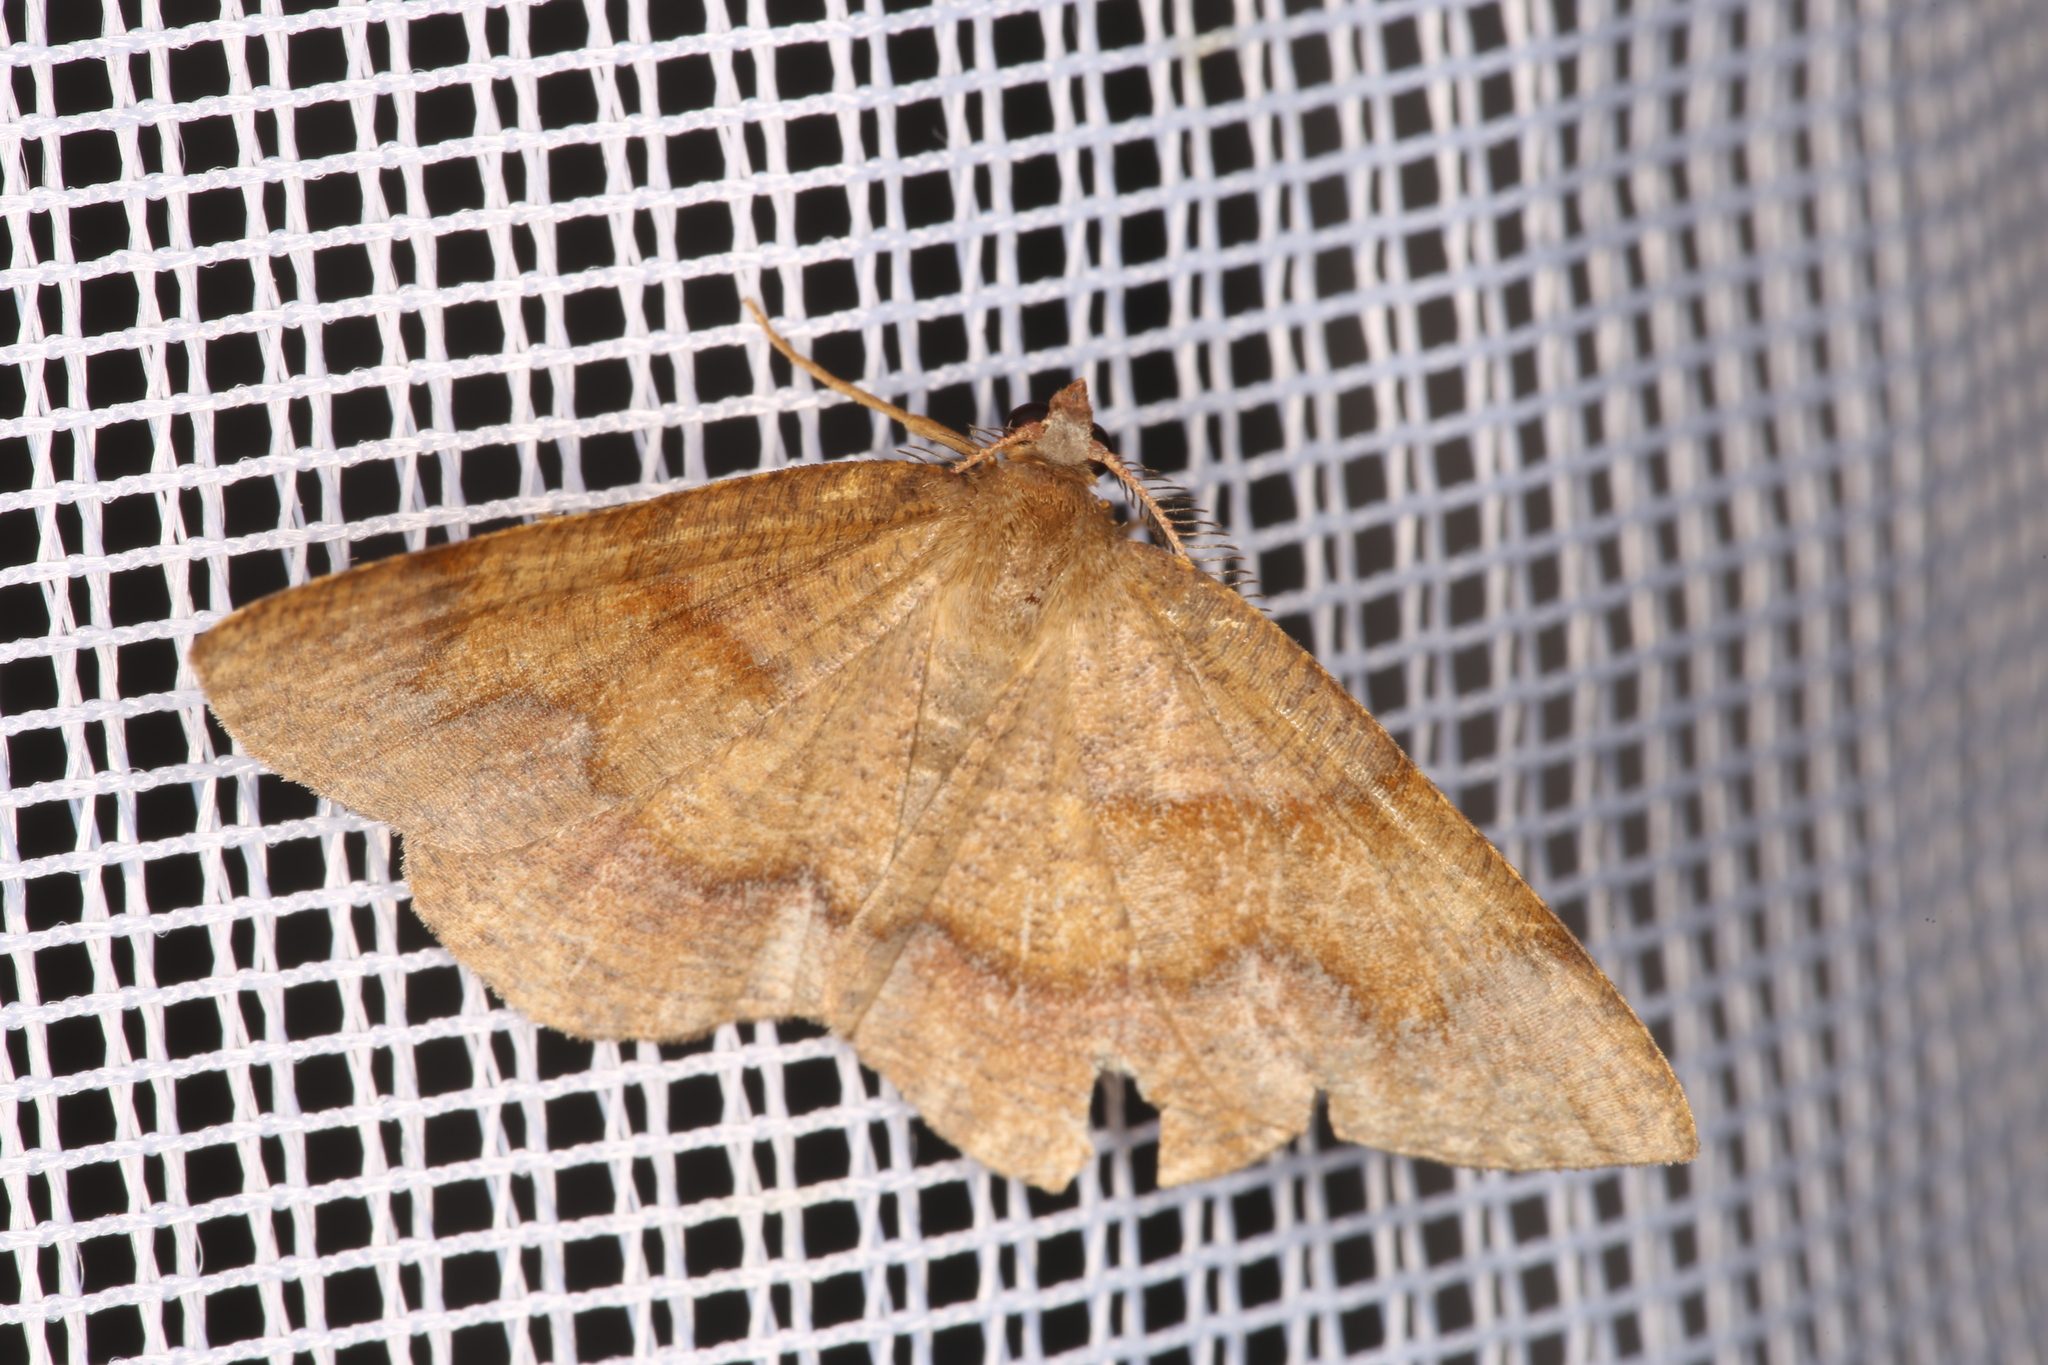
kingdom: Animalia
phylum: Arthropoda
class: Insecta
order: Lepidoptera
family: Geometridae
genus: Plagodis
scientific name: Plagodis pulveraria
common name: Barred umber
